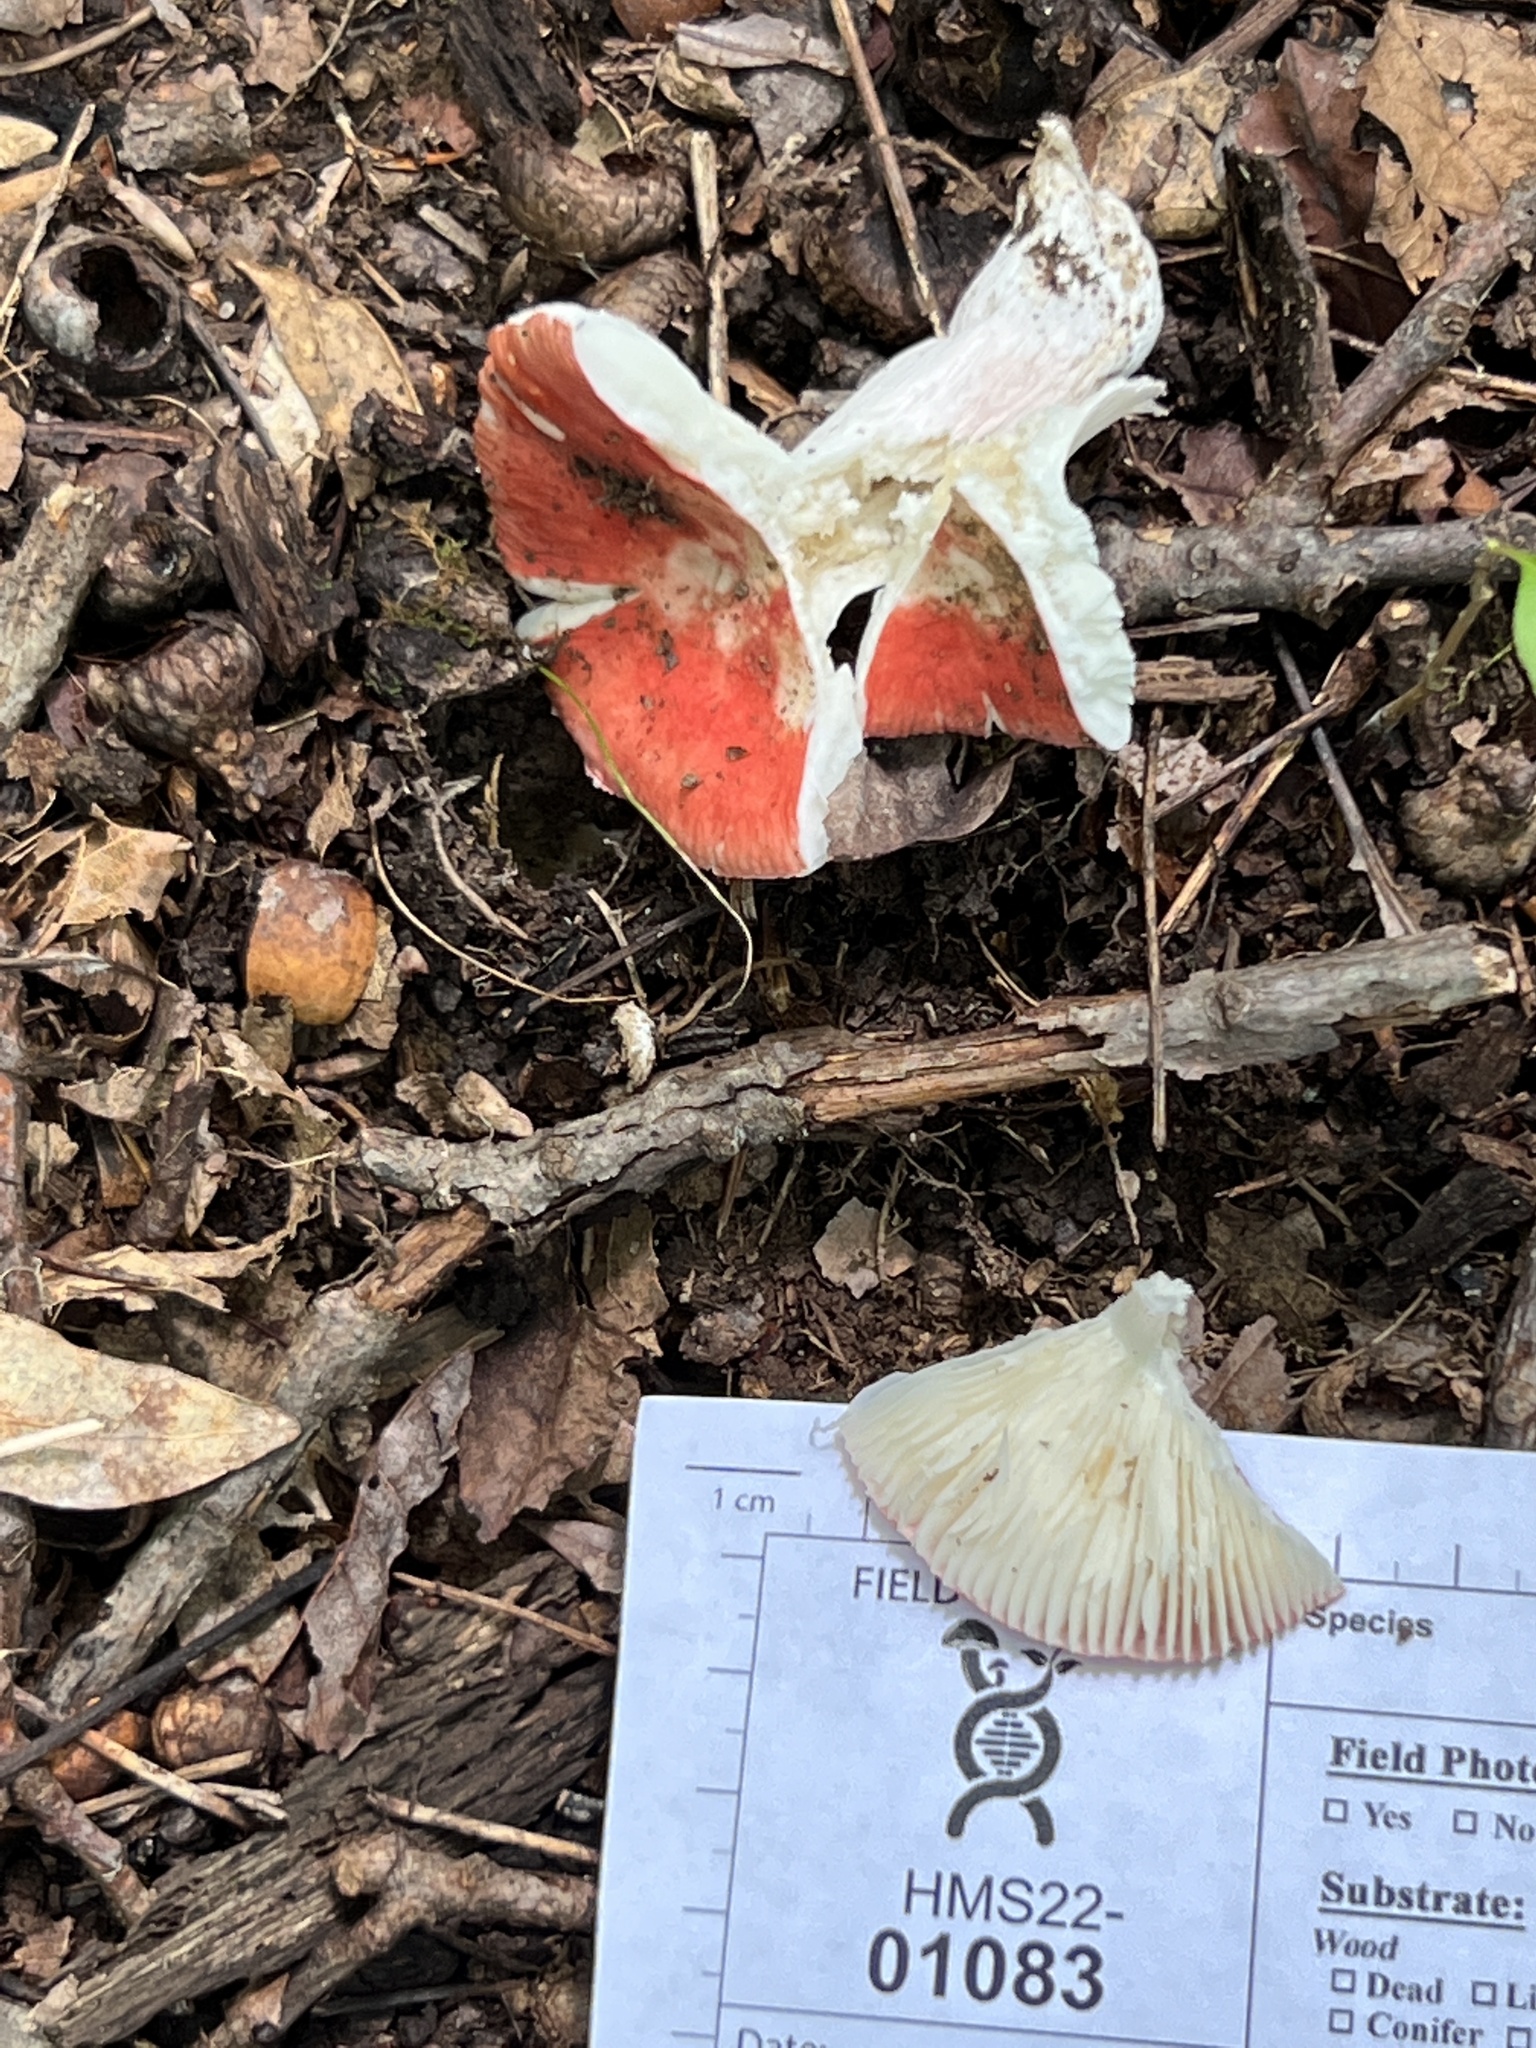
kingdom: Fungi
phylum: Basidiomycota
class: Agaricomycetes
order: Russulales
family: Russulaceae
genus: Russula
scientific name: Russula pseudopeckii
